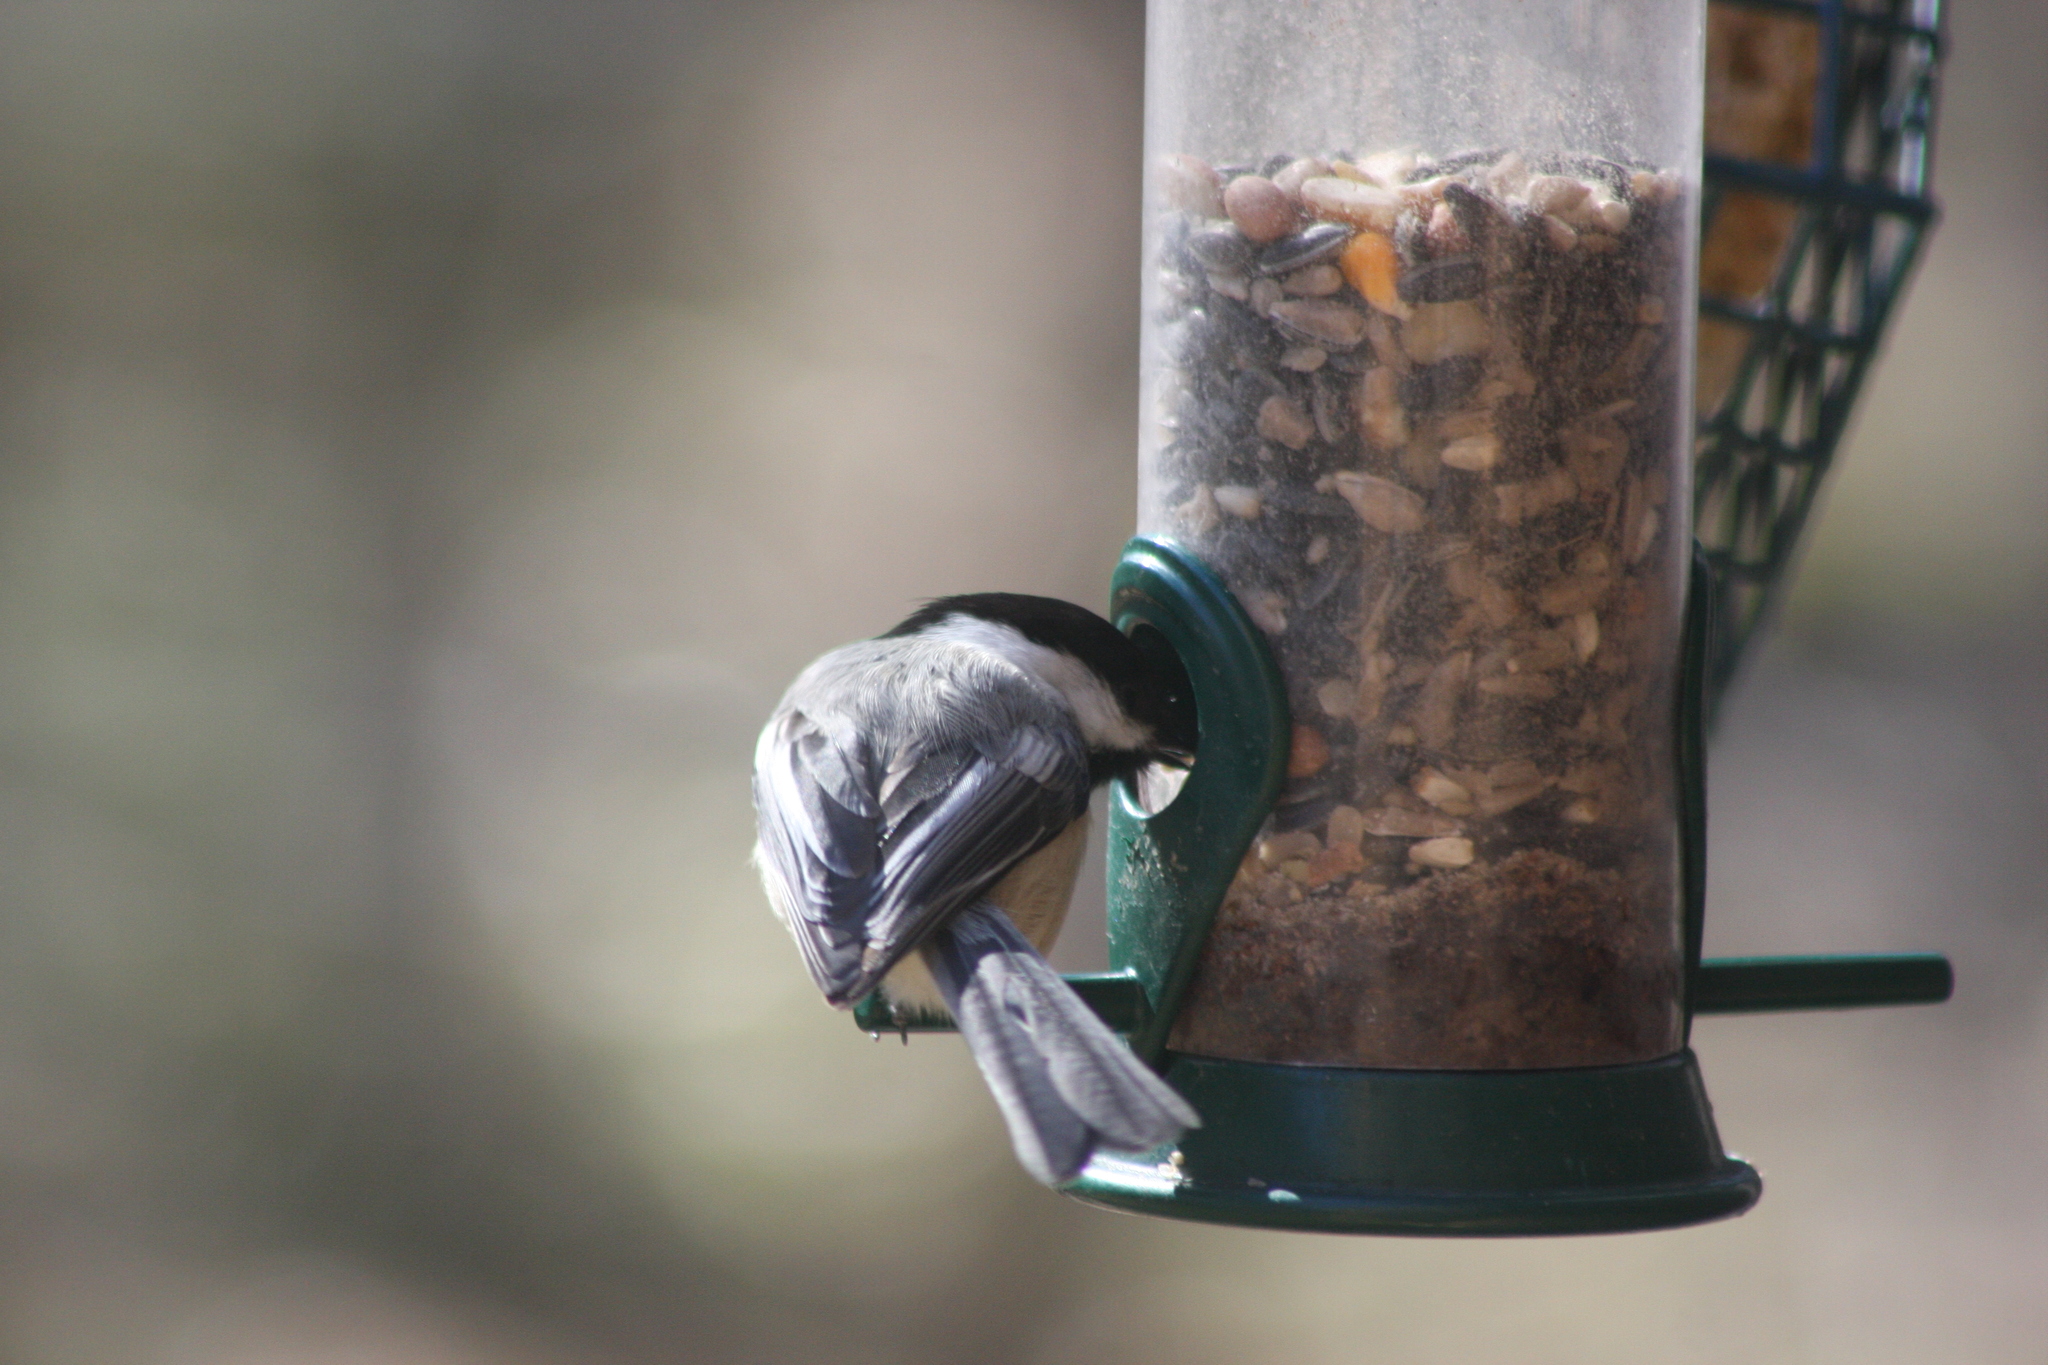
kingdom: Animalia
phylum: Chordata
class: Aves
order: Passeriformes
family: Paridae
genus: Poecile
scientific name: Poecile atricapillus
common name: Black-capped chickadee
